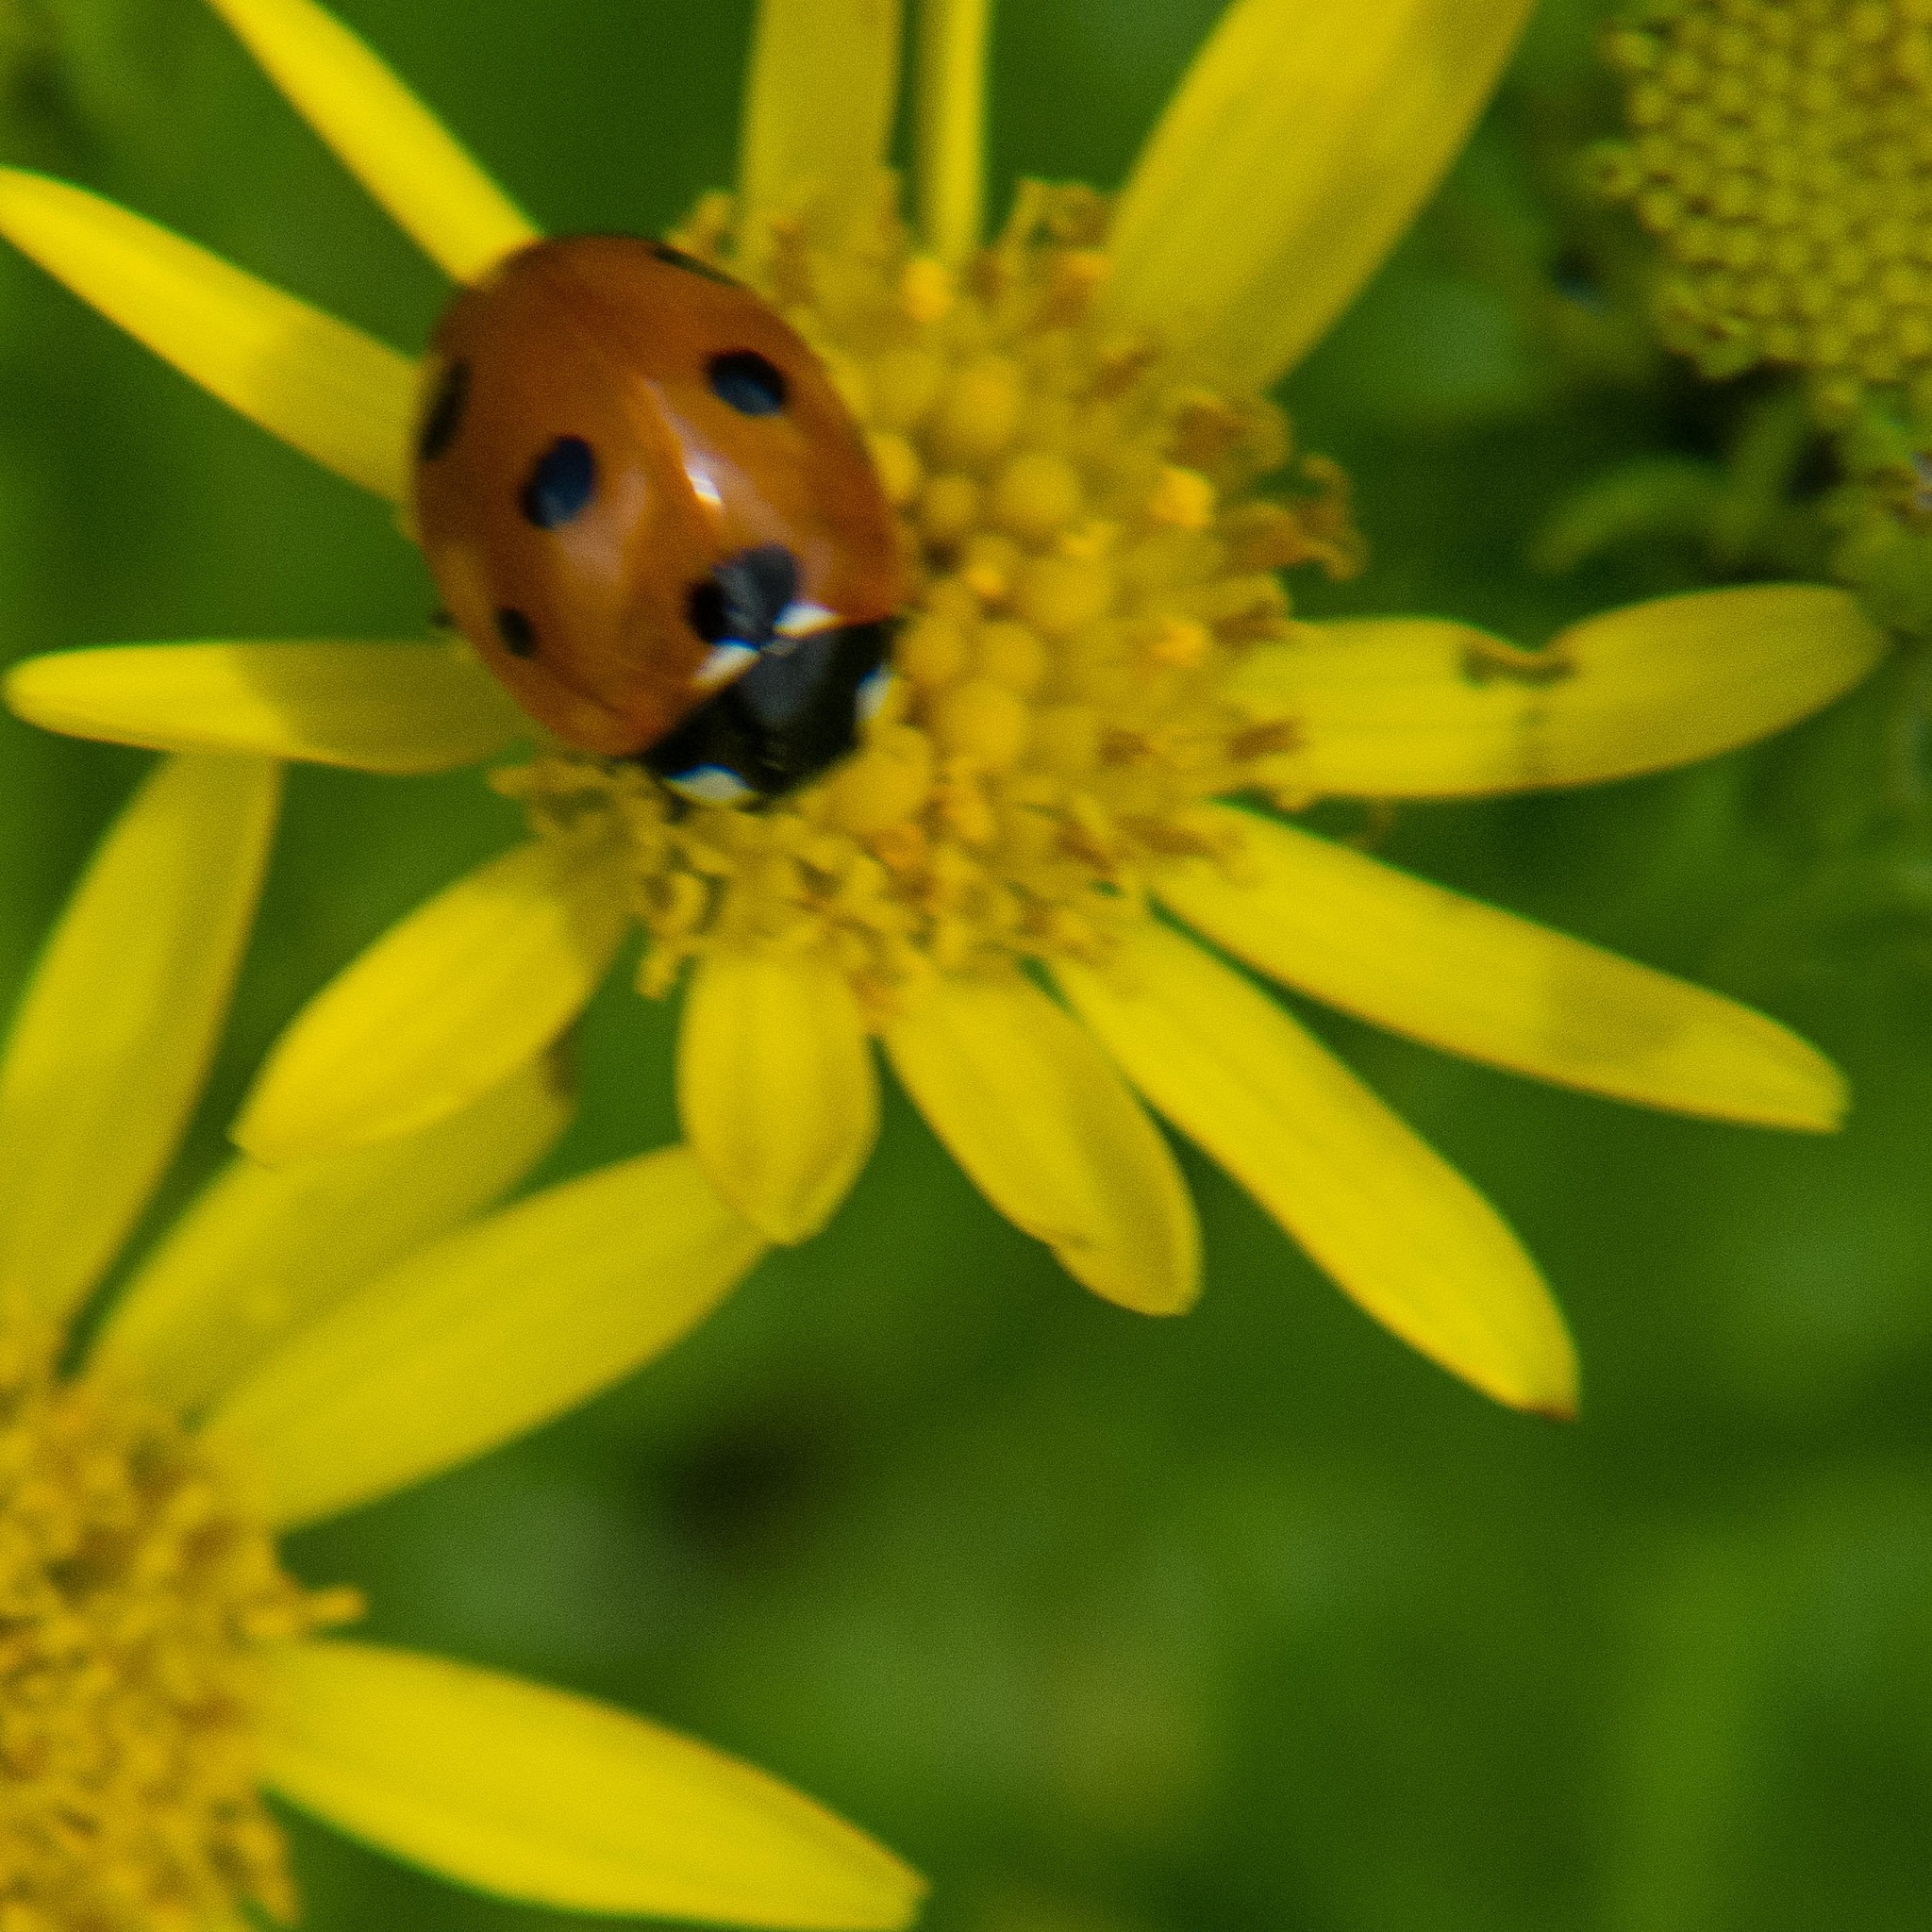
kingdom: Animalia
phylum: Arthropoda
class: Insecta
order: Coleoptera
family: Coccinellidae
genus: Coccinella
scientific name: Coccinella septempunctata
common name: Sevenspotted lady beetle
